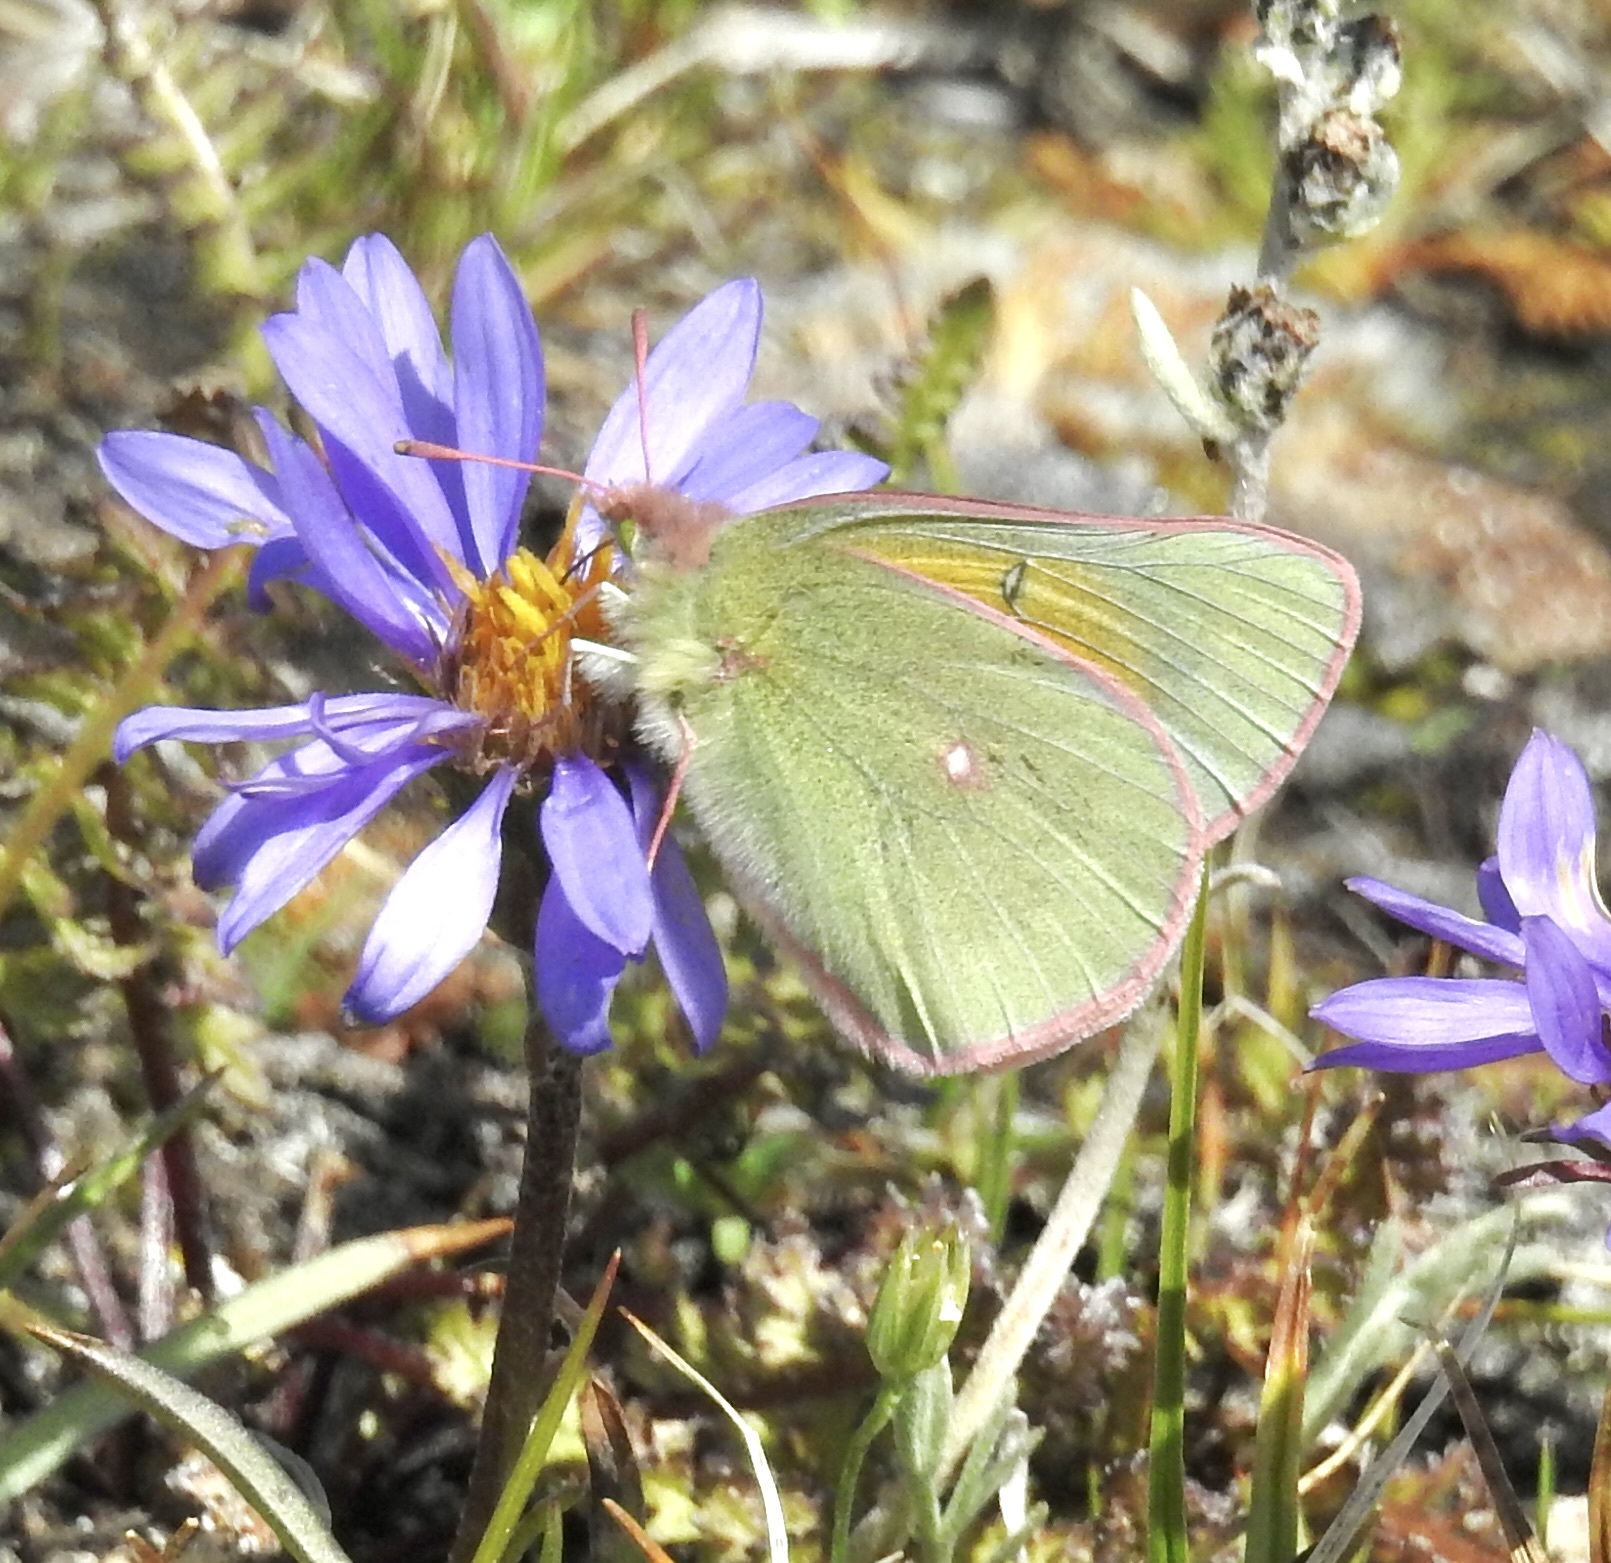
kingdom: Animalia
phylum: Arthropoda
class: Insecta
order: Lepidoptera
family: Pieridae
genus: Colias
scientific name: Colias meadii
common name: Mead's sulphur
